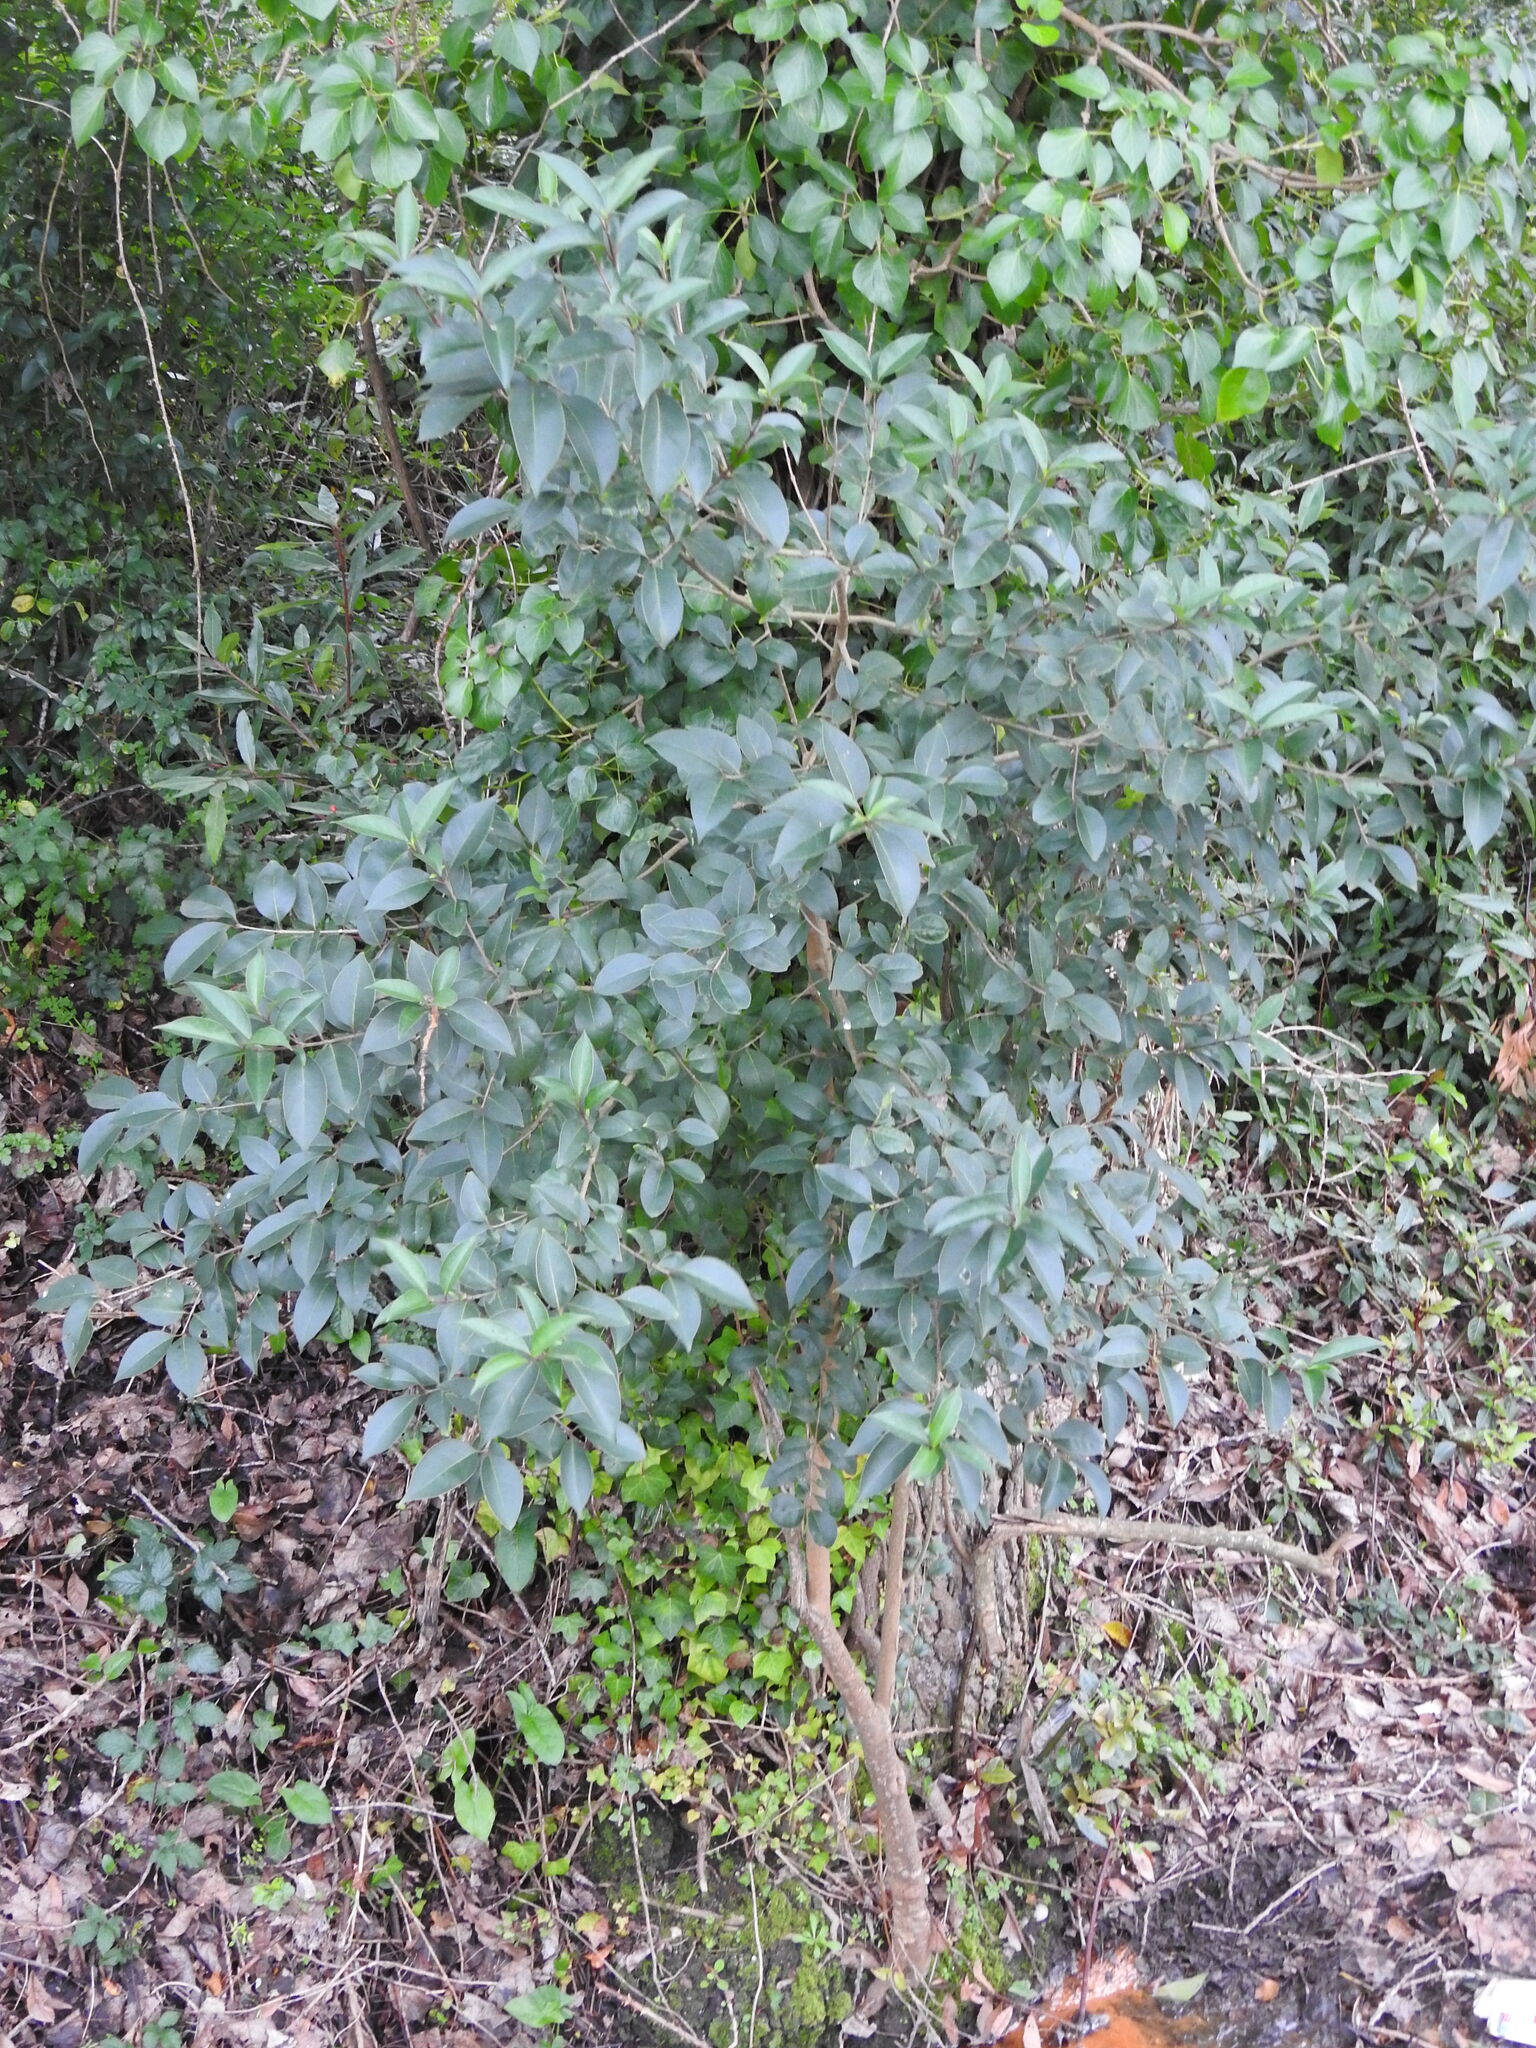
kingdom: Plantae
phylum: Tracheophyta
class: Magnoliopsida
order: Lamiales
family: Oleaceae
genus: Ligustrum
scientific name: Ligustrum lucidum
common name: Glossy privet
